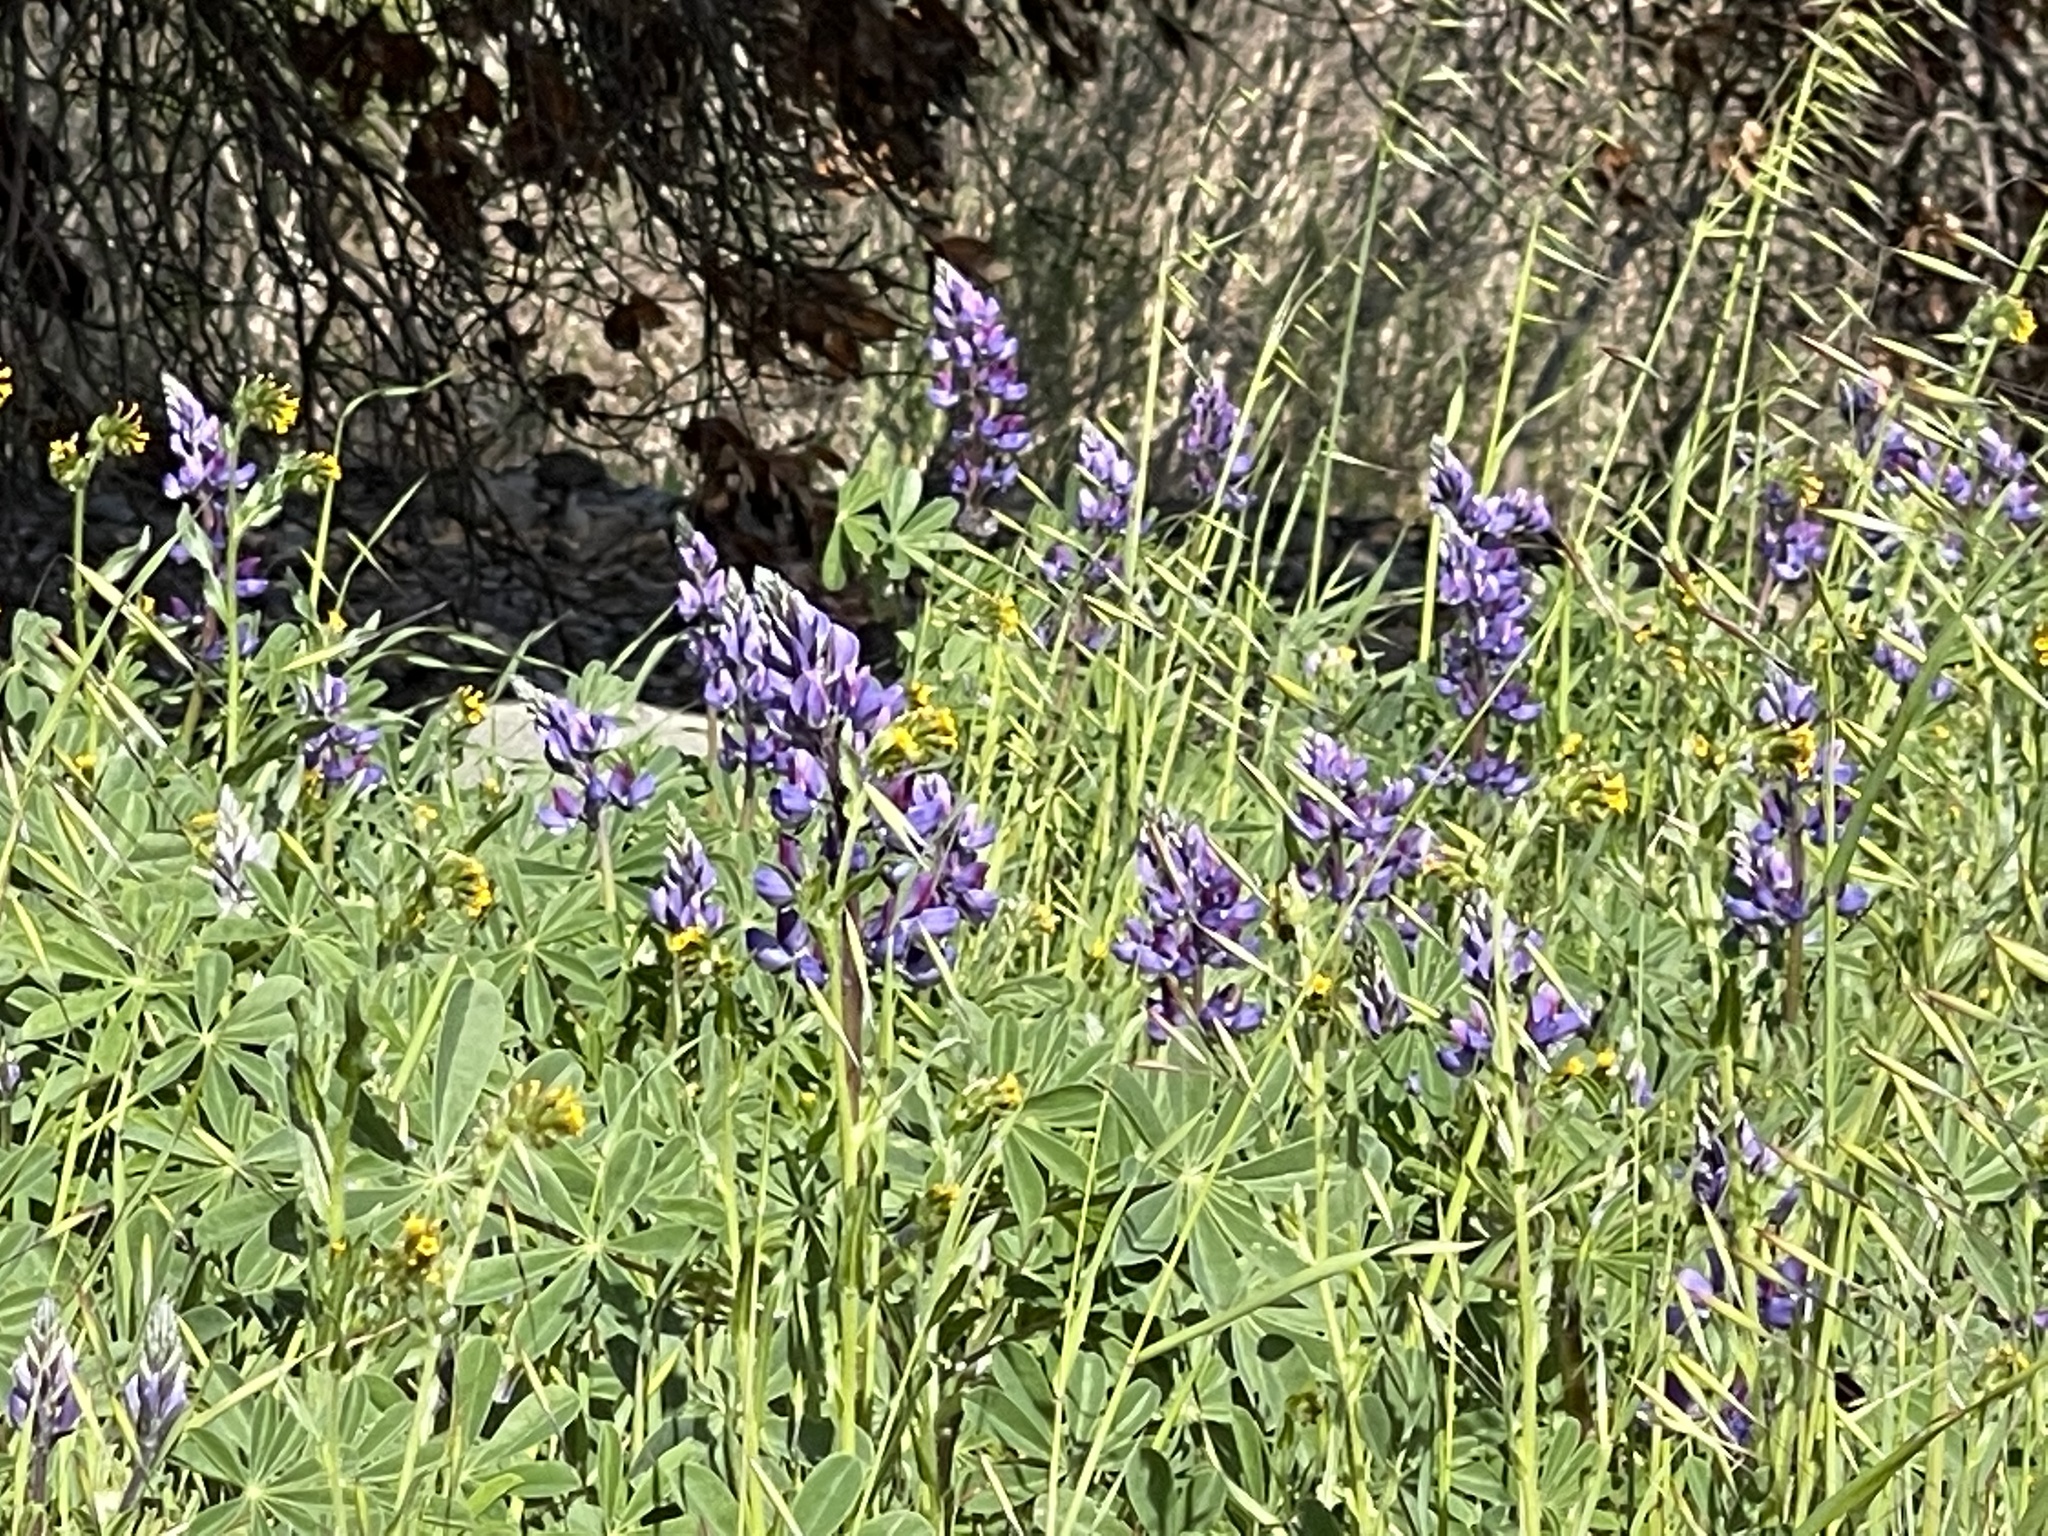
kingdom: Plantae
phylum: Tracheophyta
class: Magnoliopsida
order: Fabales
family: Fabaceae
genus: Lupinus
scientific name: Lupinus succulentus
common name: Arroyo lupine
